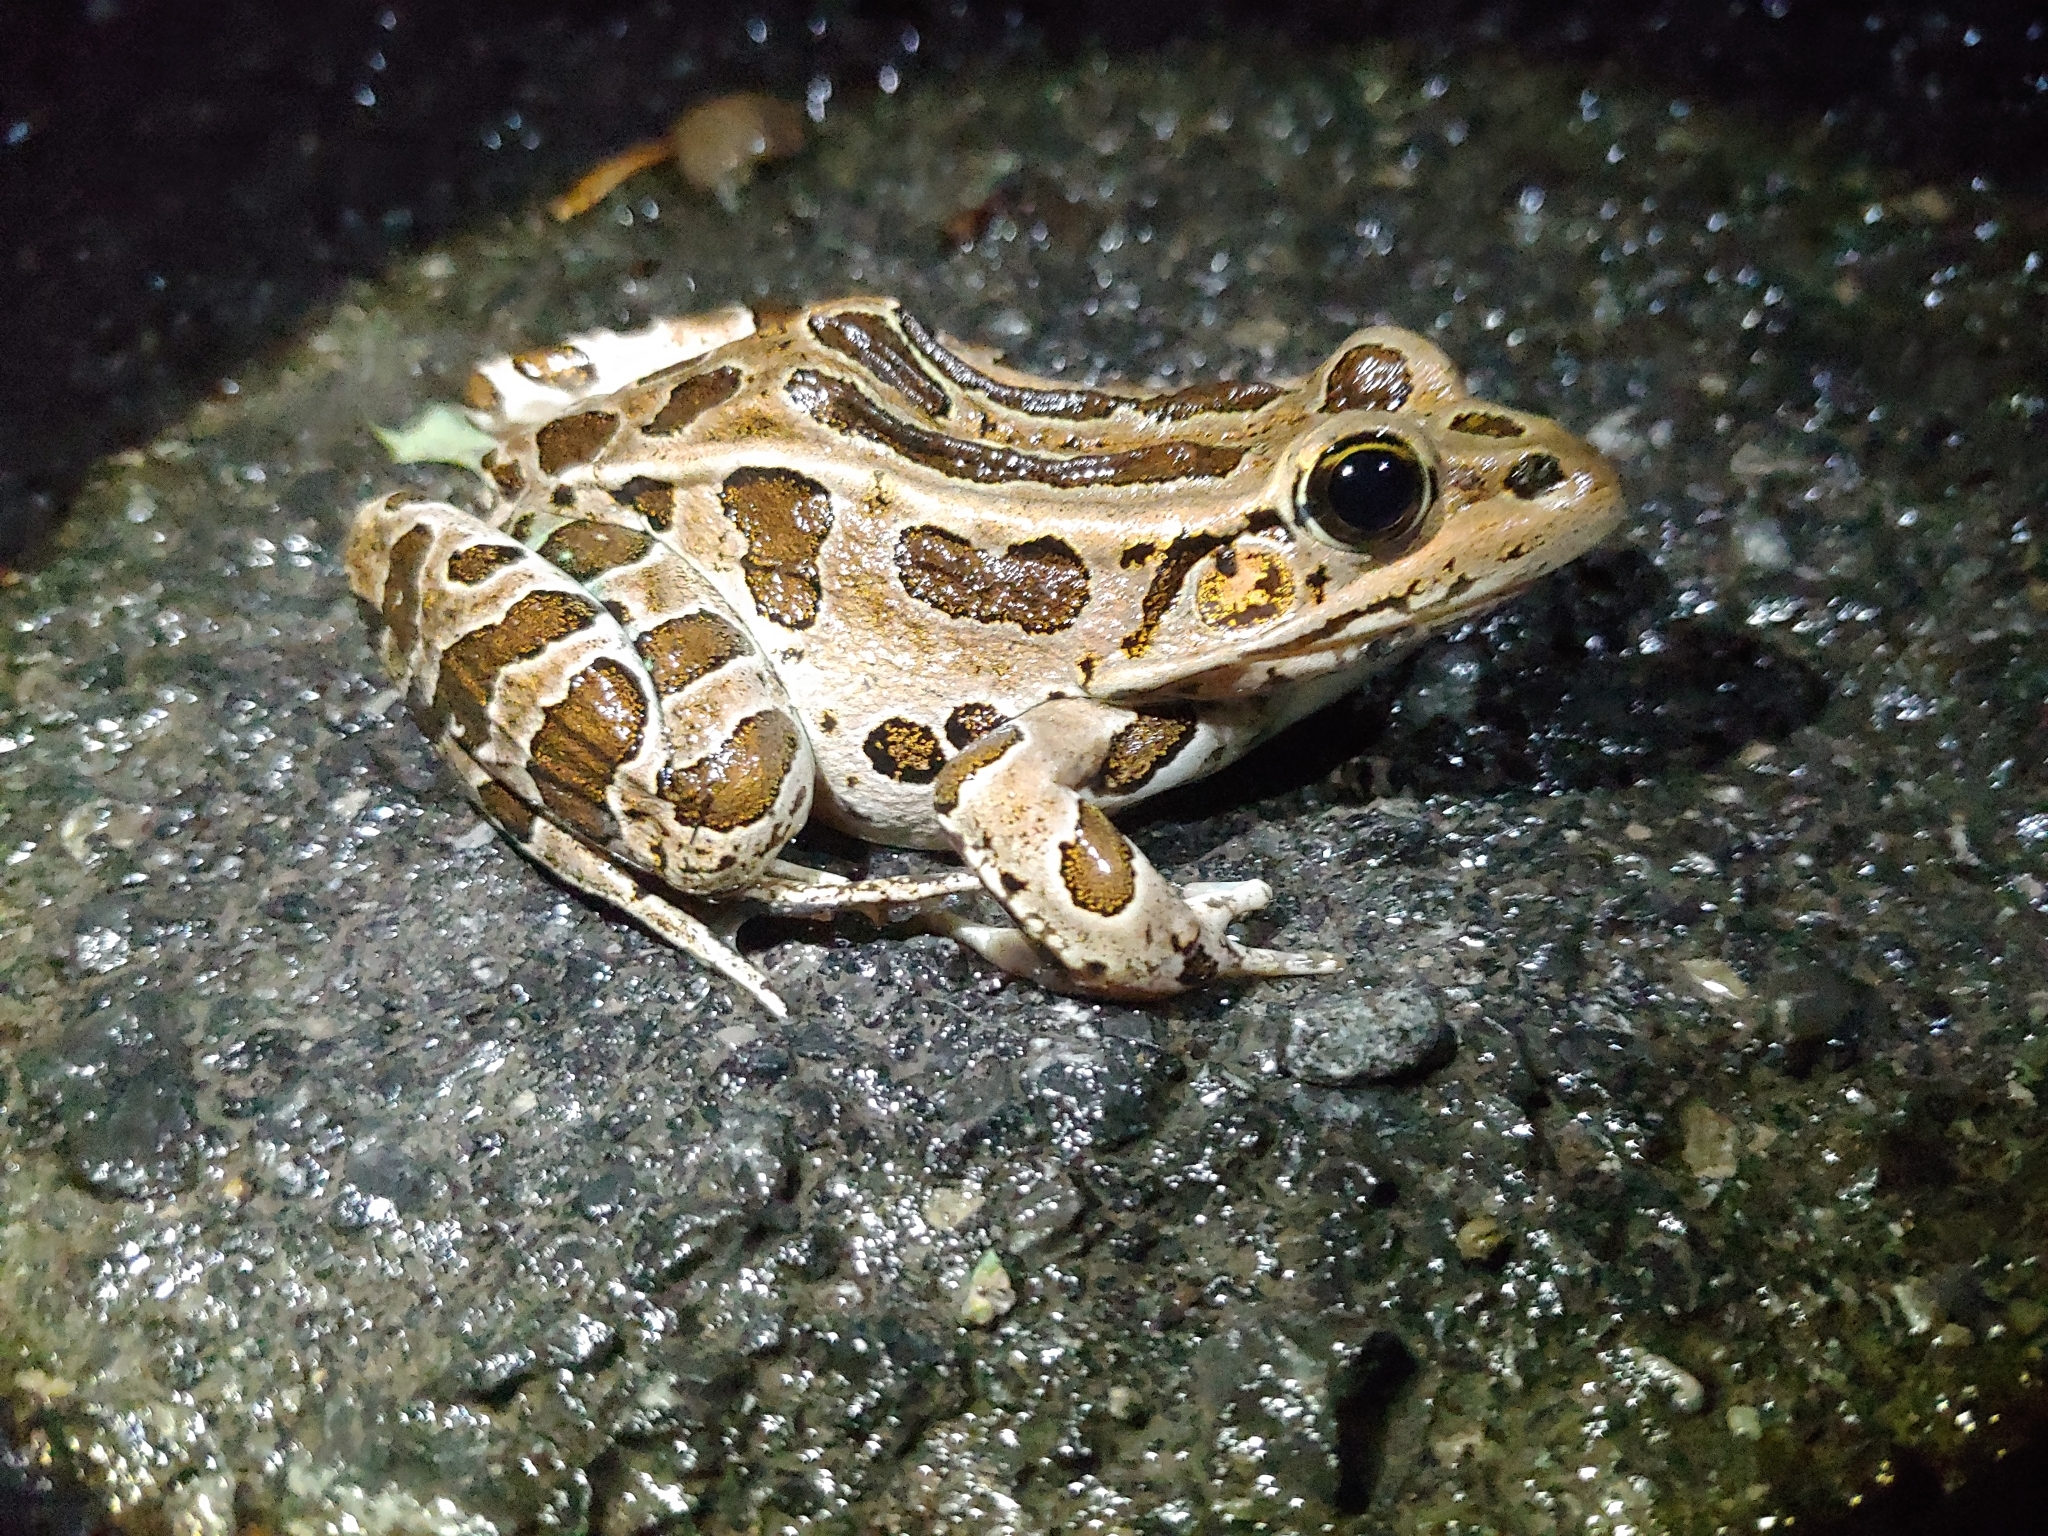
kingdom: Animalia
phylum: Chordata
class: Amphibia
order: Anura
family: Ranidae
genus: Lithobates
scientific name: Lithobates pipiens
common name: Northern leopard frog
